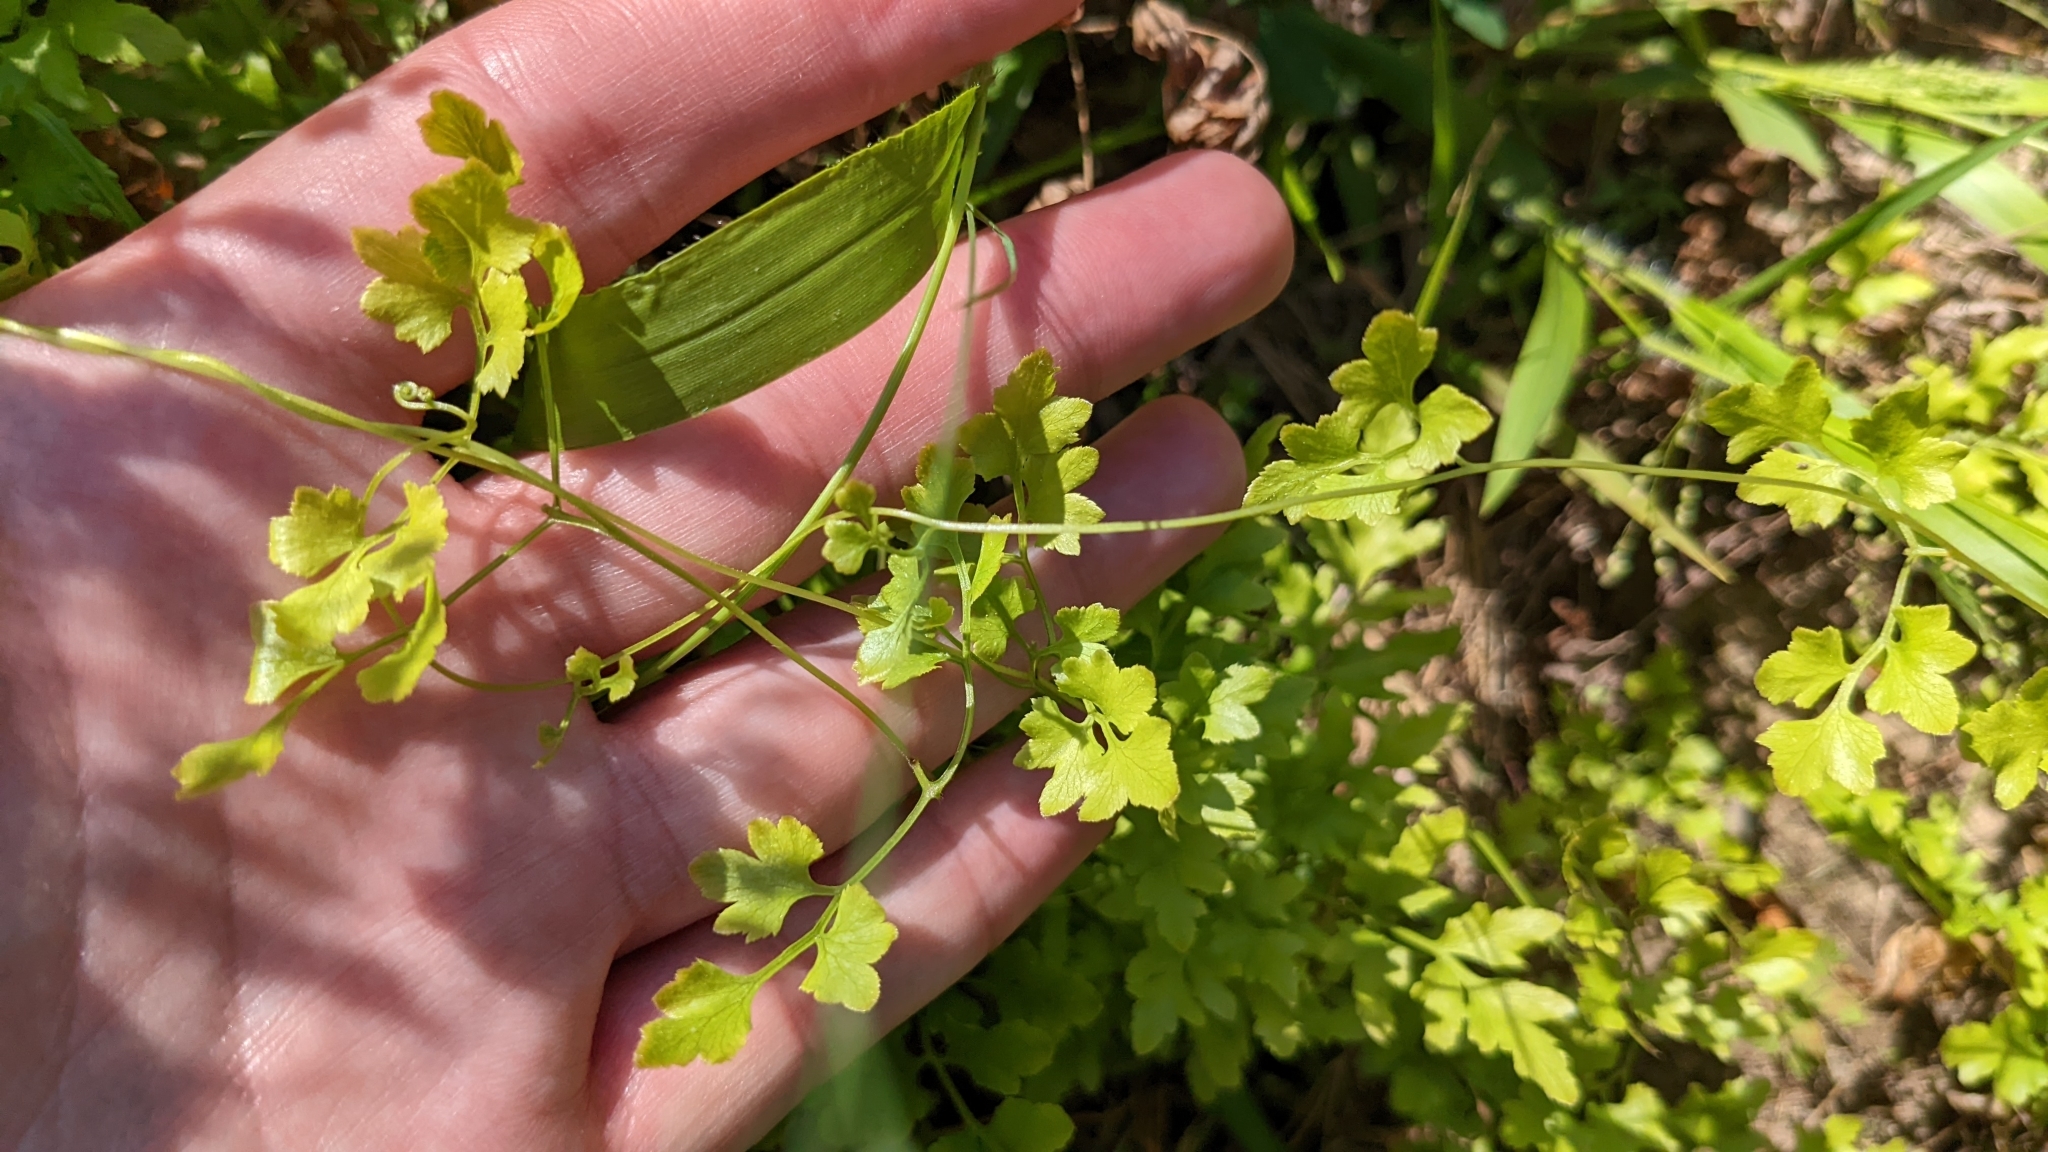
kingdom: Plantae
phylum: Tracheophyta
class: Polypodiopsida
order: Schizaeales
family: Lygodiaceae
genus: Lygodium
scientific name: Lygodium japonicum
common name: Japanese climbing fern
